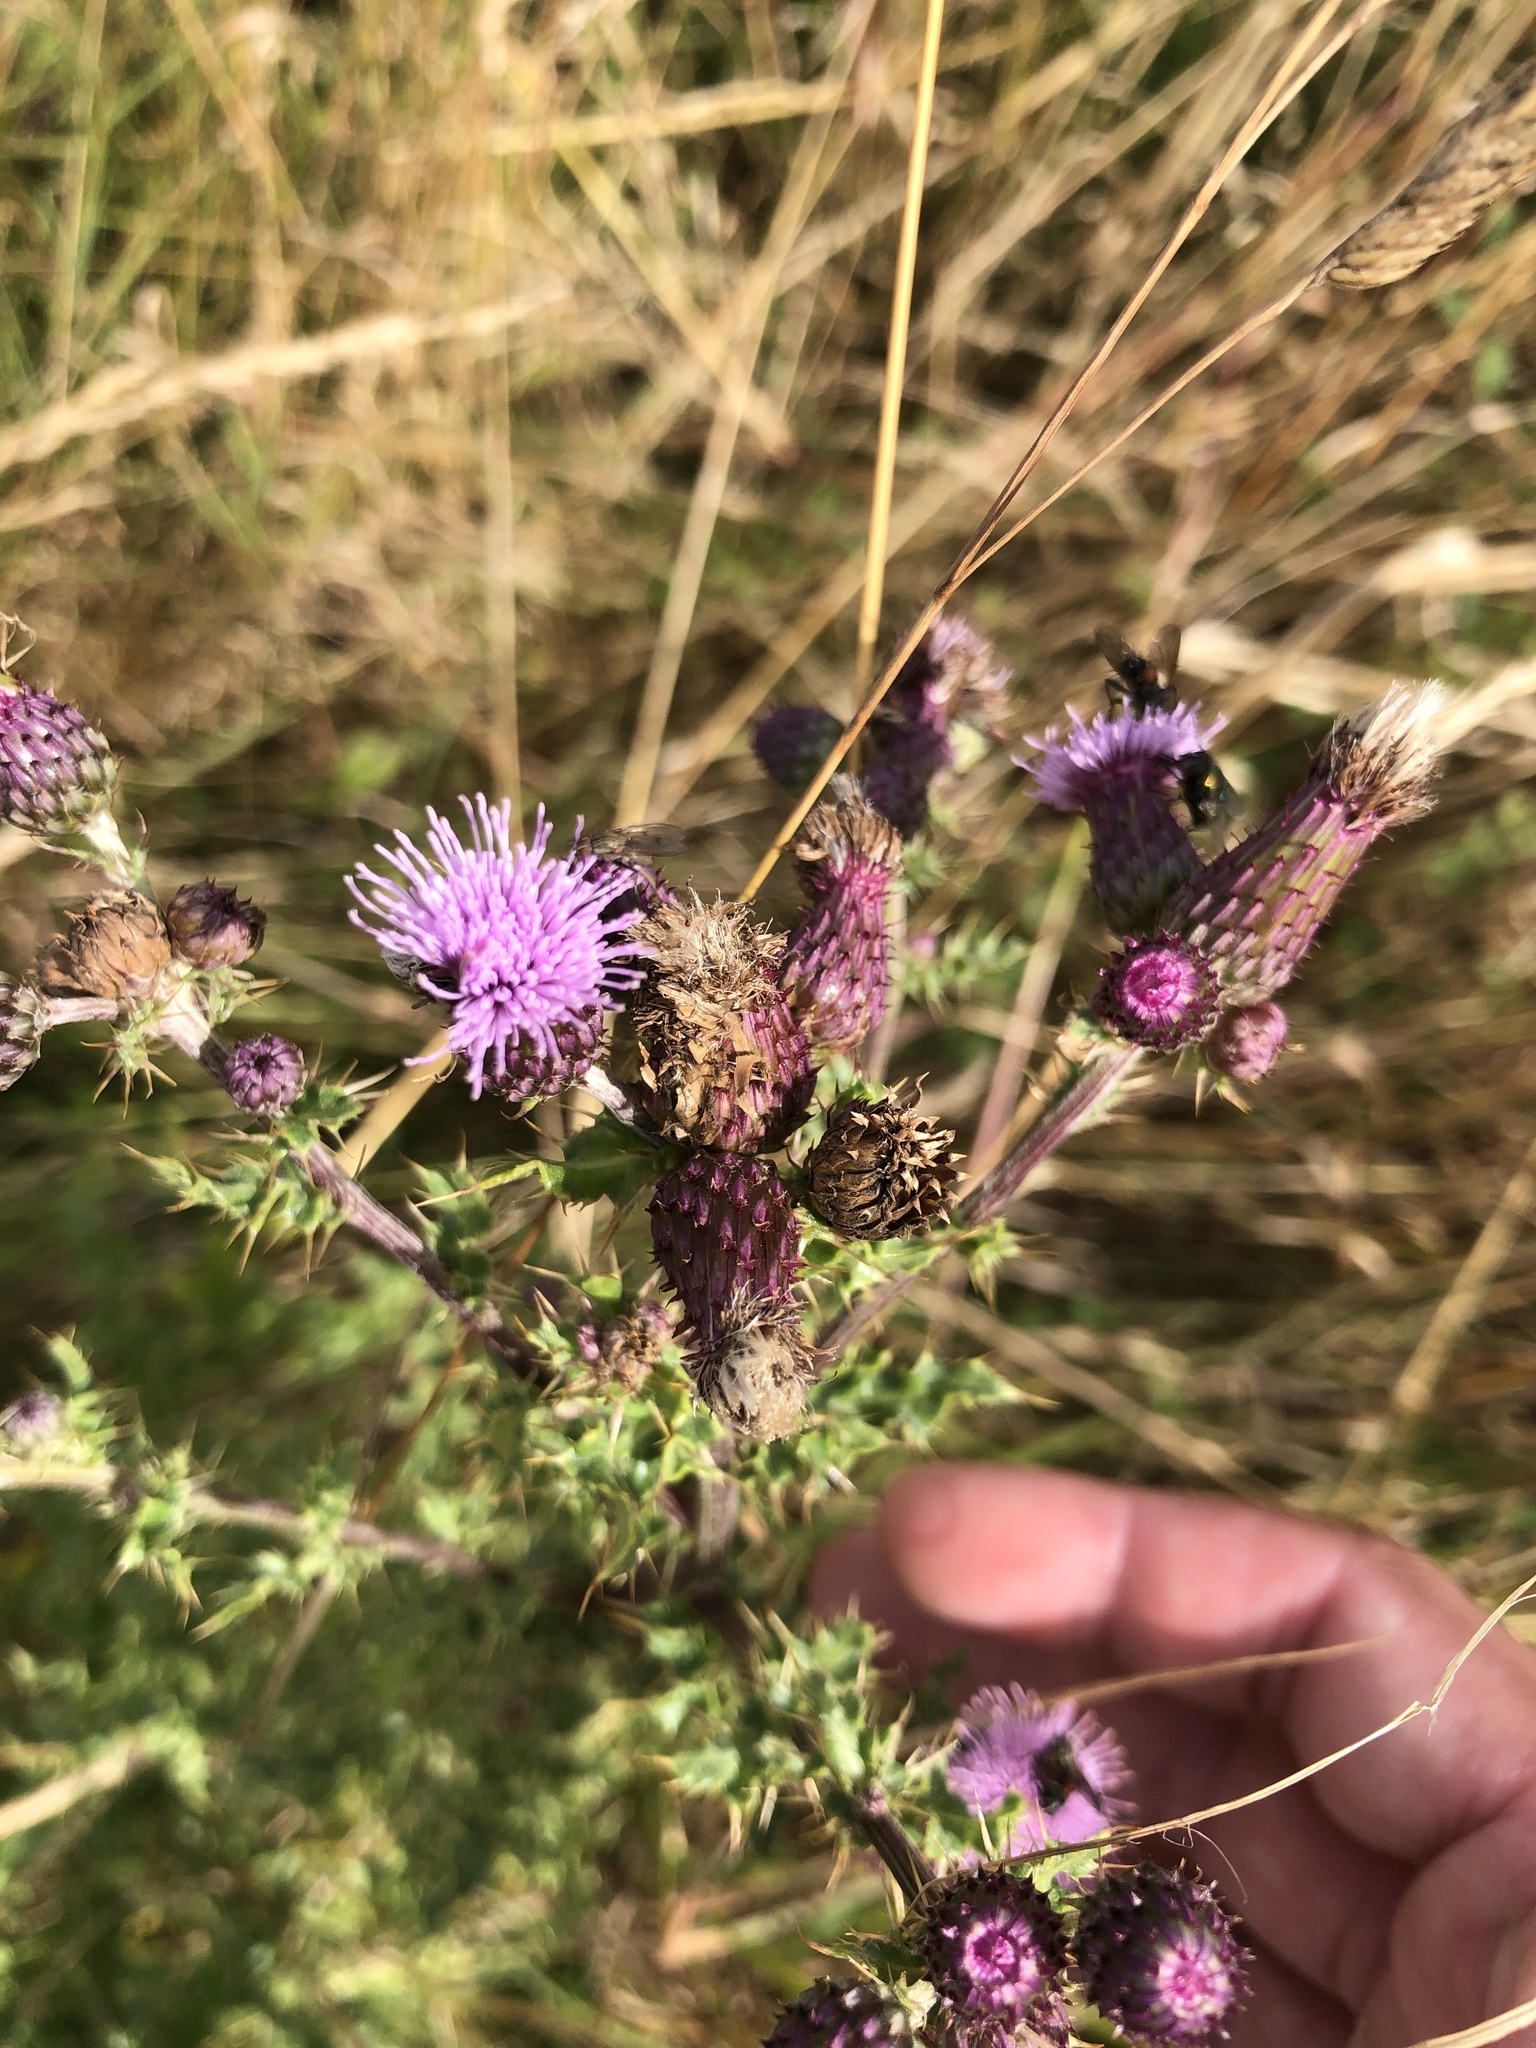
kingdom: Plantae
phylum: Tracheophyta
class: Magnoliopsida
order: Asterales
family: Asteraceae
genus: Cirsium
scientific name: Cirsium arvense
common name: Creeping thistle
